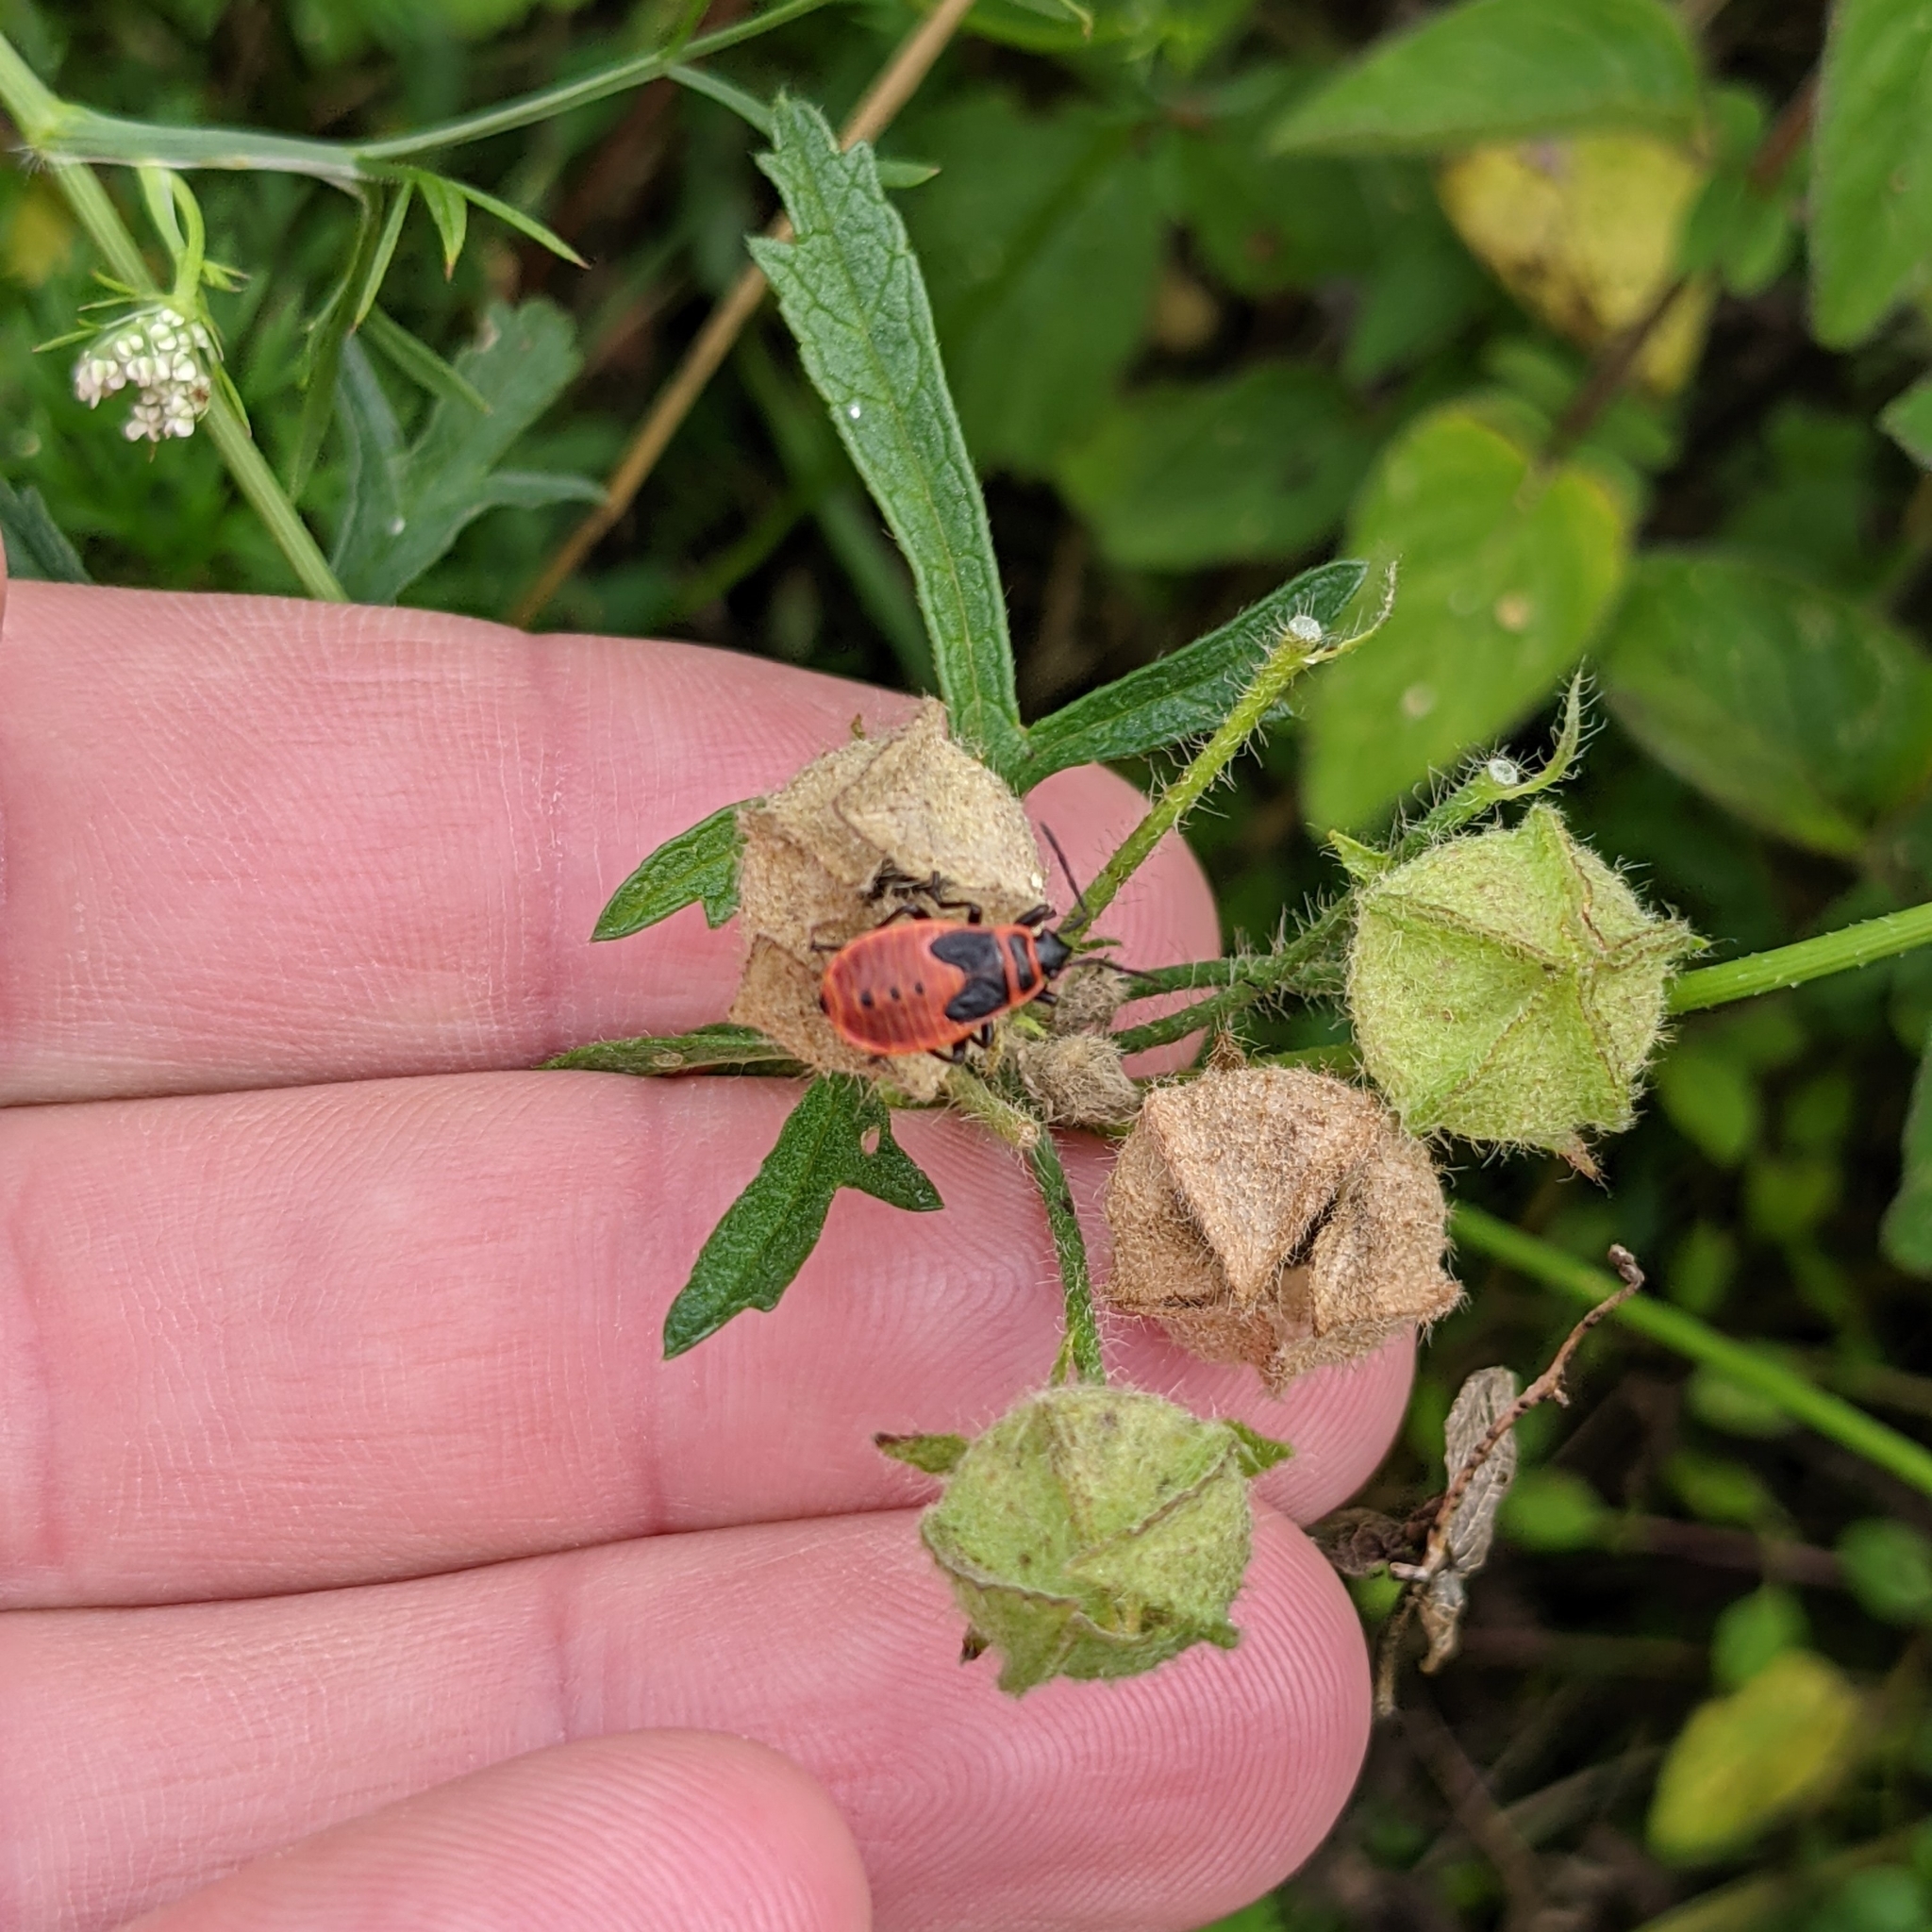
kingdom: Animalia
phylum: Arthropoda
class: Insecta
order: Hemiptera
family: Pyrrhocoridae
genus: Pyrrhocoris
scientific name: Pyrrhocoris apterus
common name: Firebug
